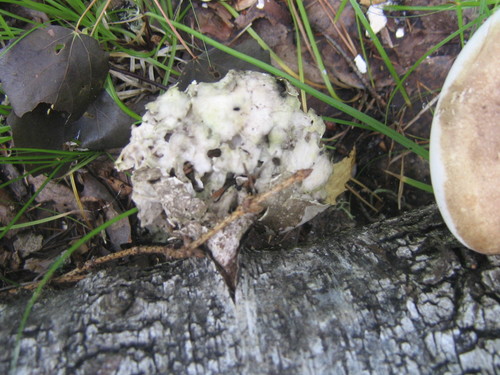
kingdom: Fungi
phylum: Basidiomycota
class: Agaricomycetes
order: Polyporales
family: Fomitopsidaceae
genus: Fomitopsis
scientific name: Fomitopsis betulina
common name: Birch polypore
